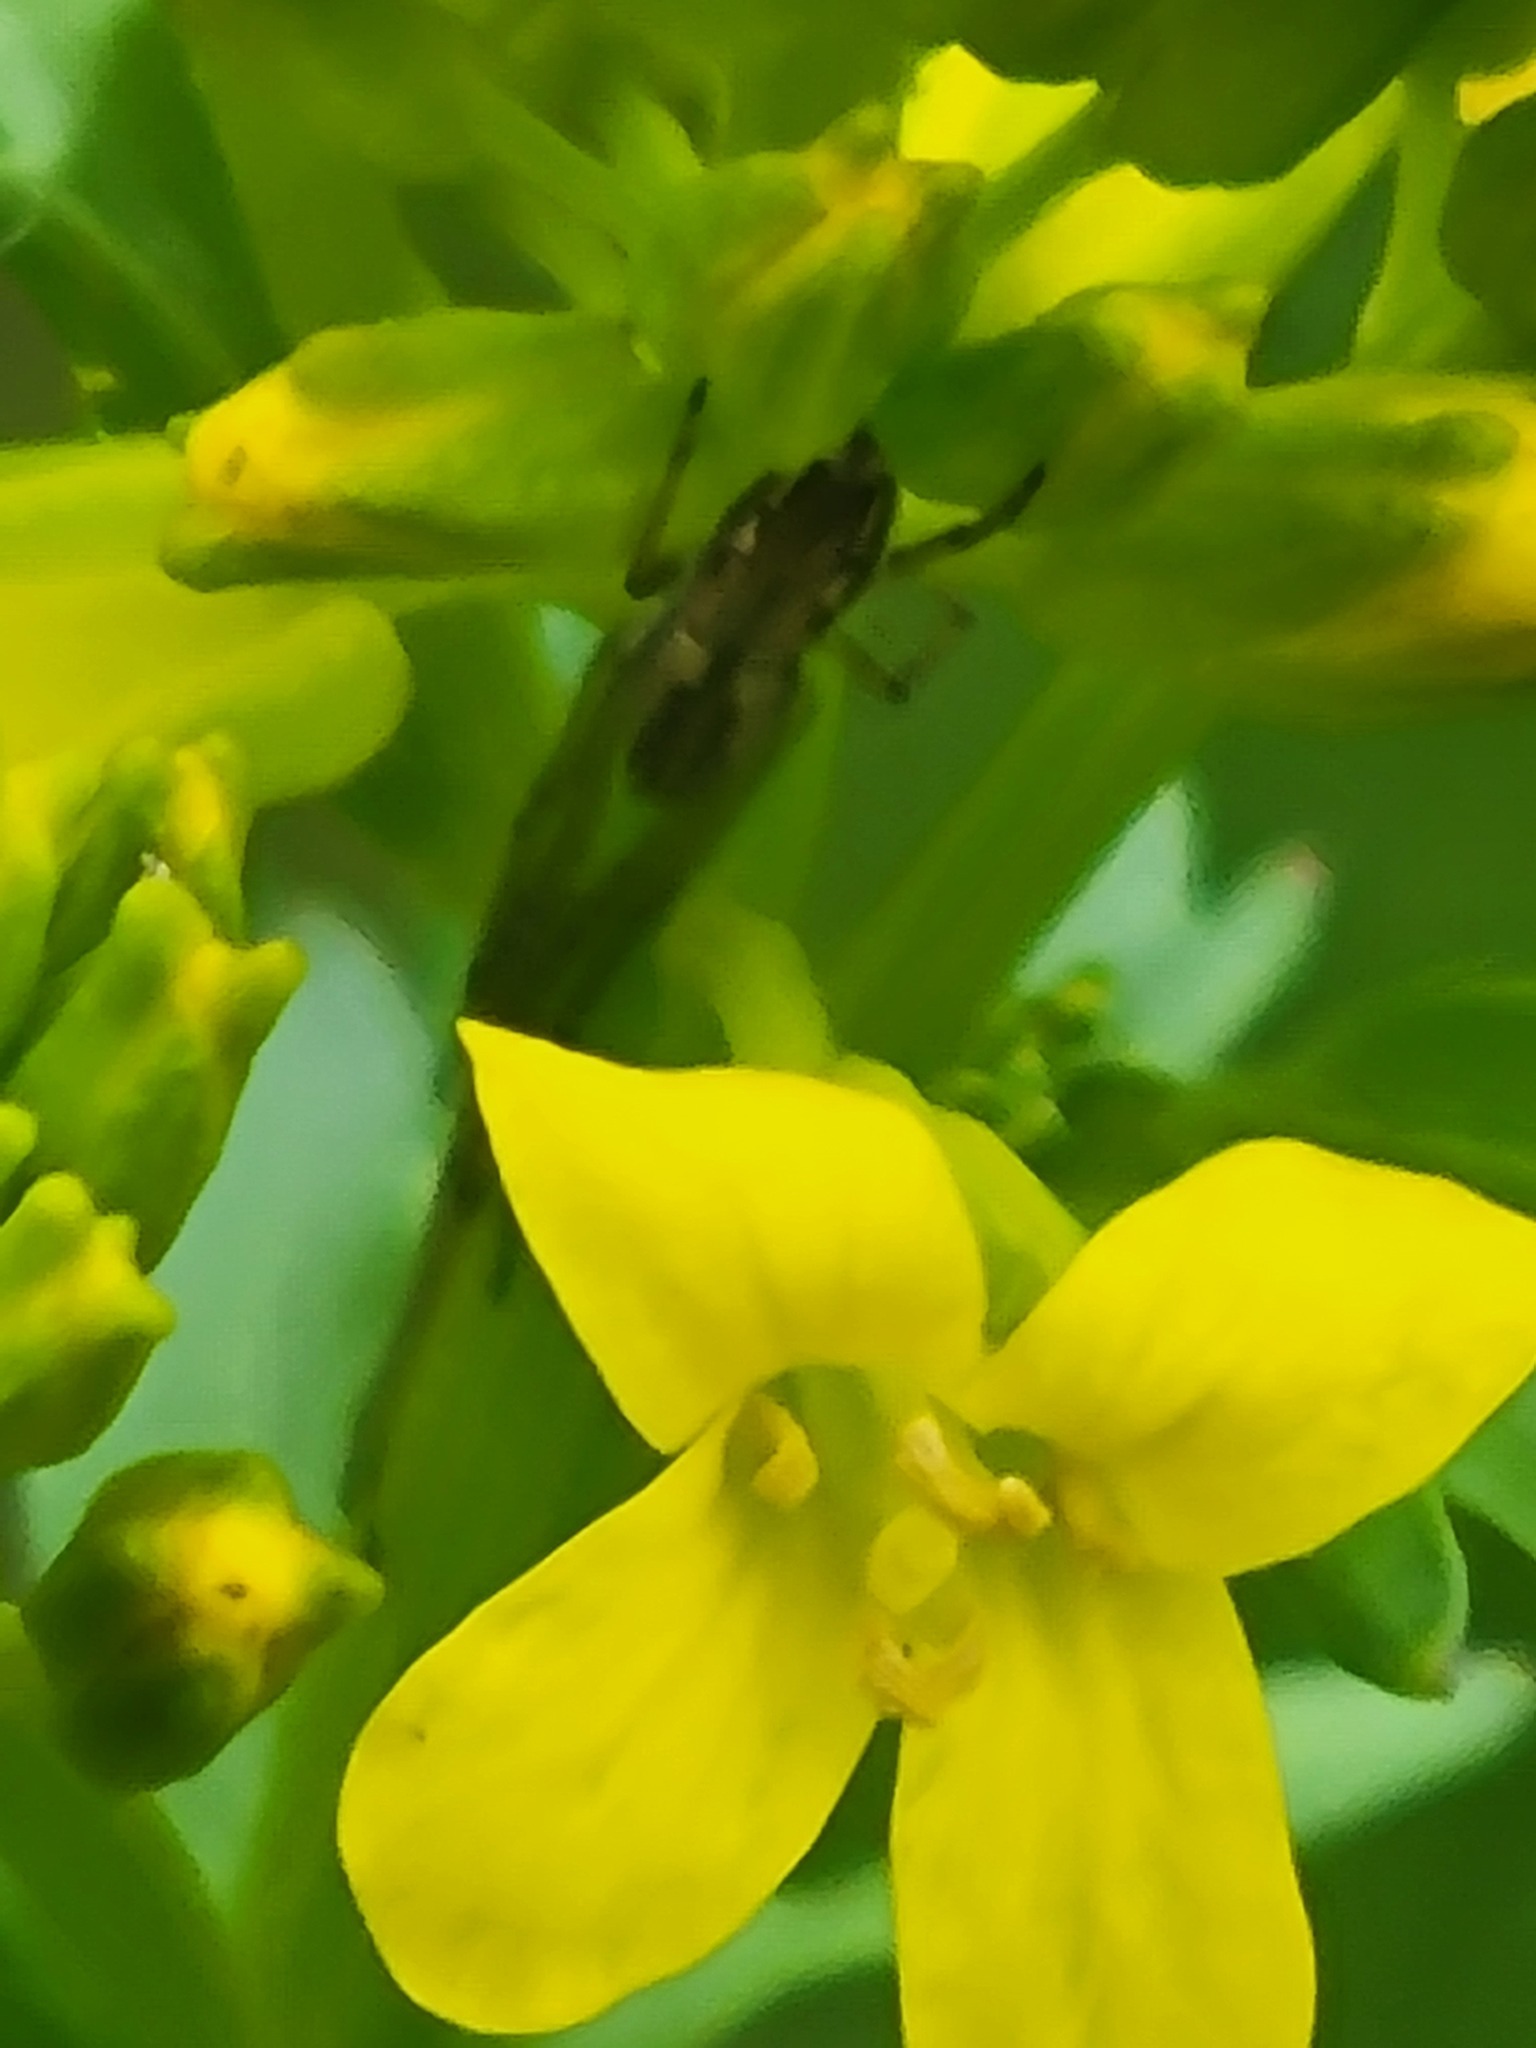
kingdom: Plantae
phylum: Tracheophyta
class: Magnoliopsida
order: Brassicales
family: Brassicaceae
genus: Barbarea
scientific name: Barbarea vulgaris
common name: Cressy-greens
